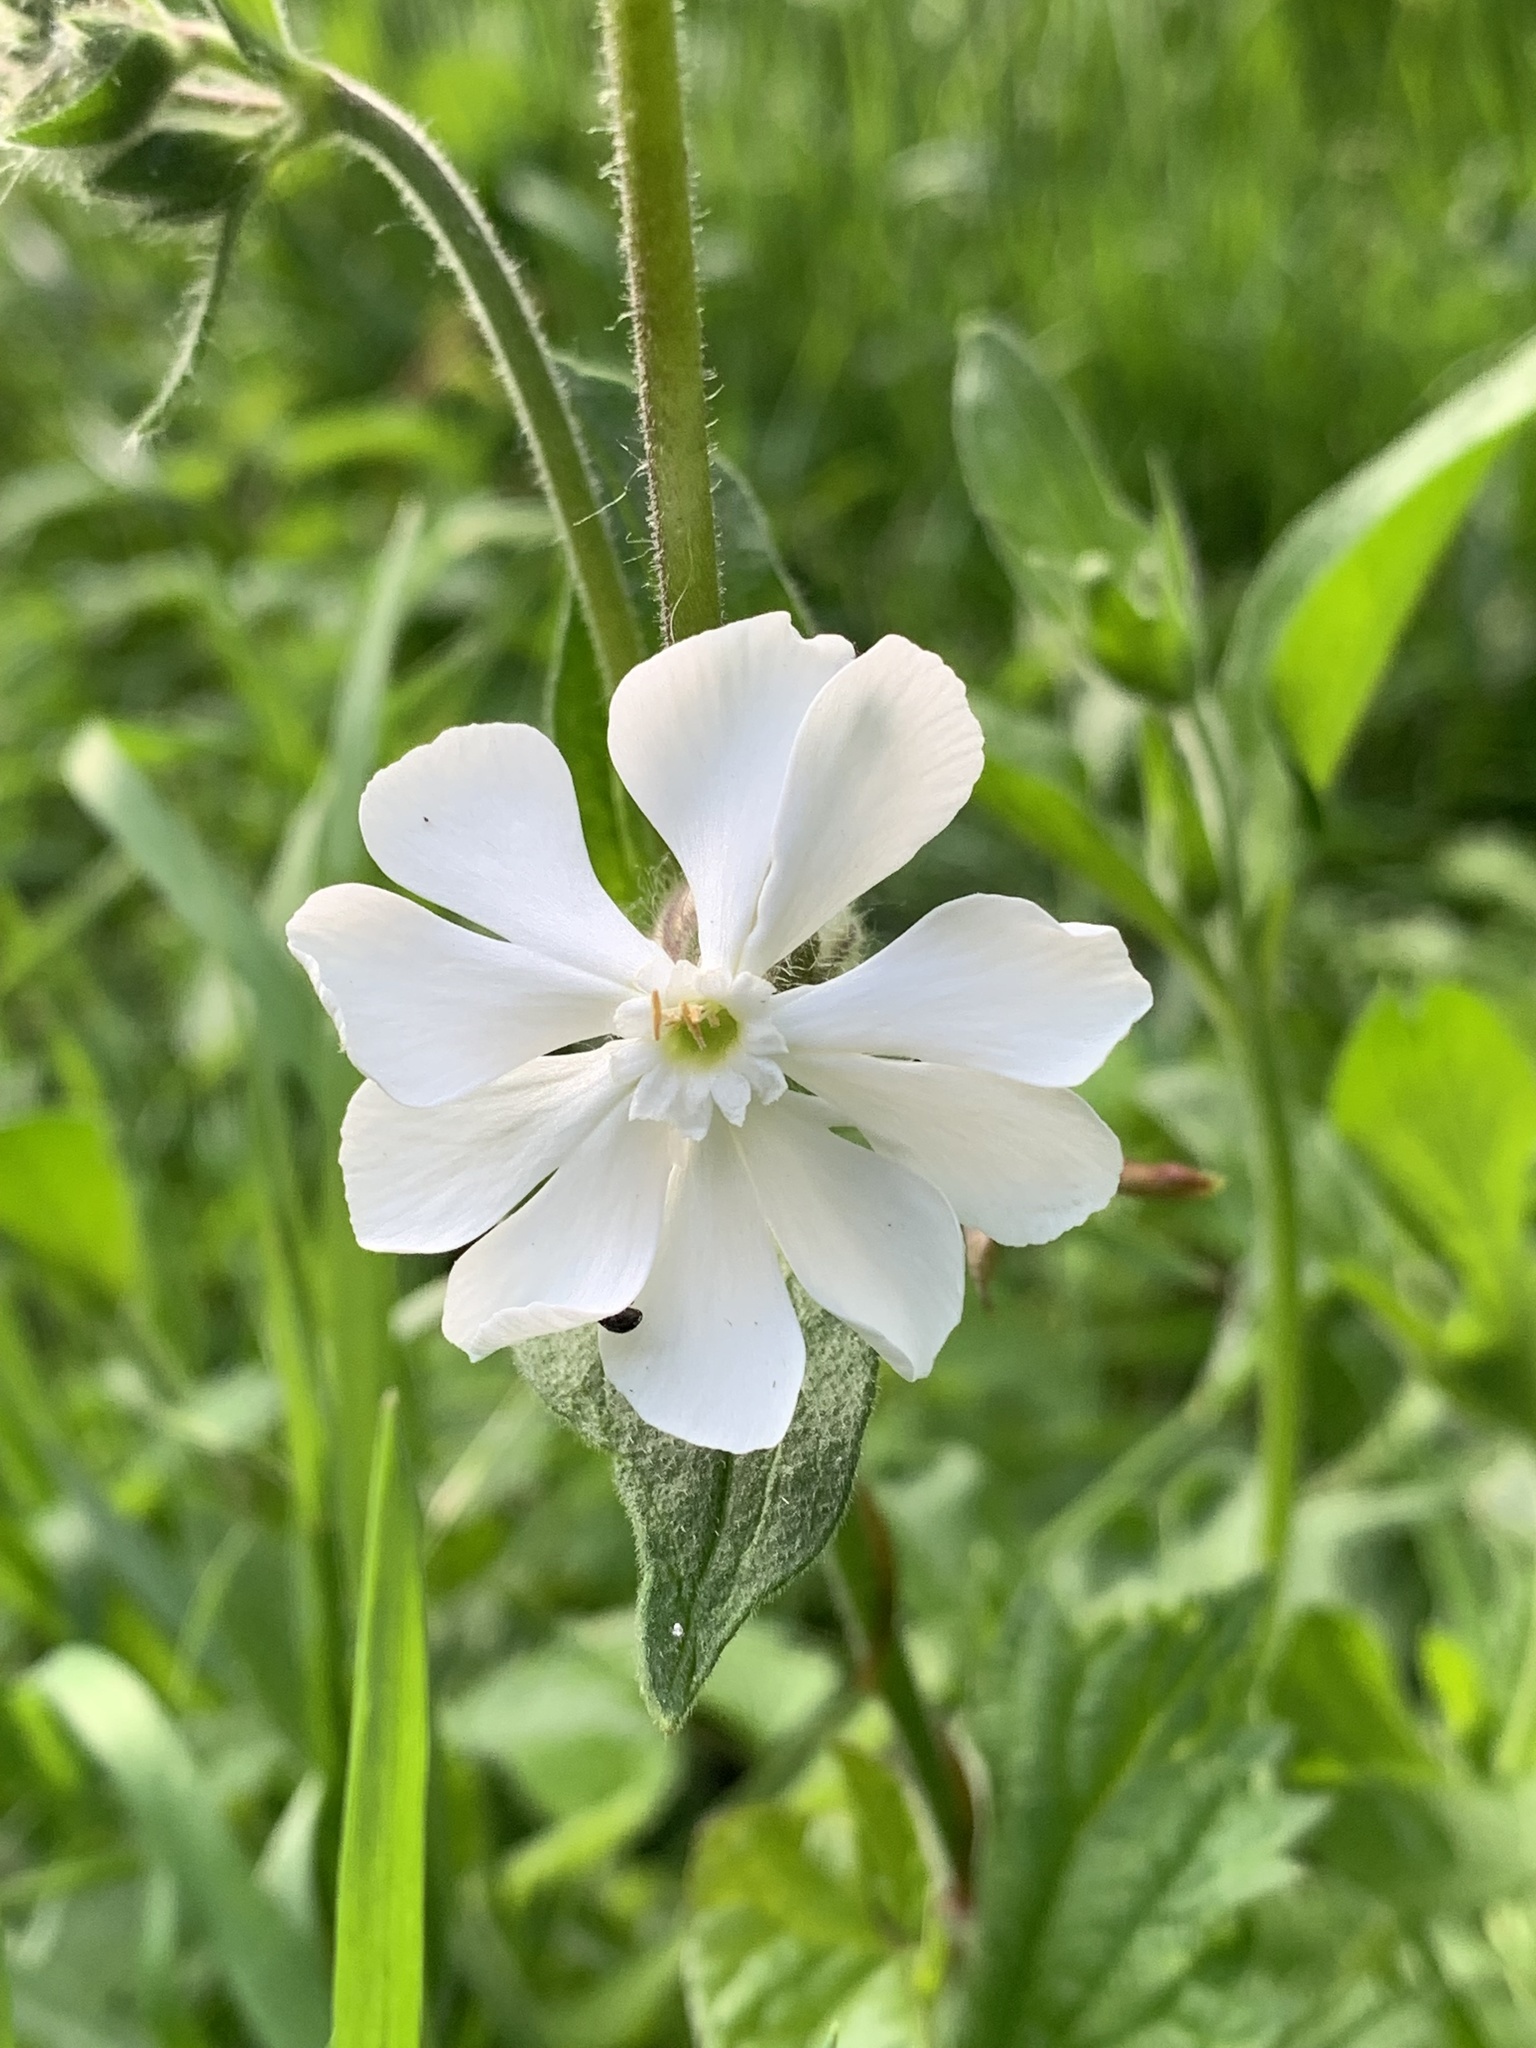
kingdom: Plantae
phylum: Tracheophyta
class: Magnoliopsida
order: Caryophyllales
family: Caryophyllaceae
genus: Silene
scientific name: Silene latifolia
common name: White campion
